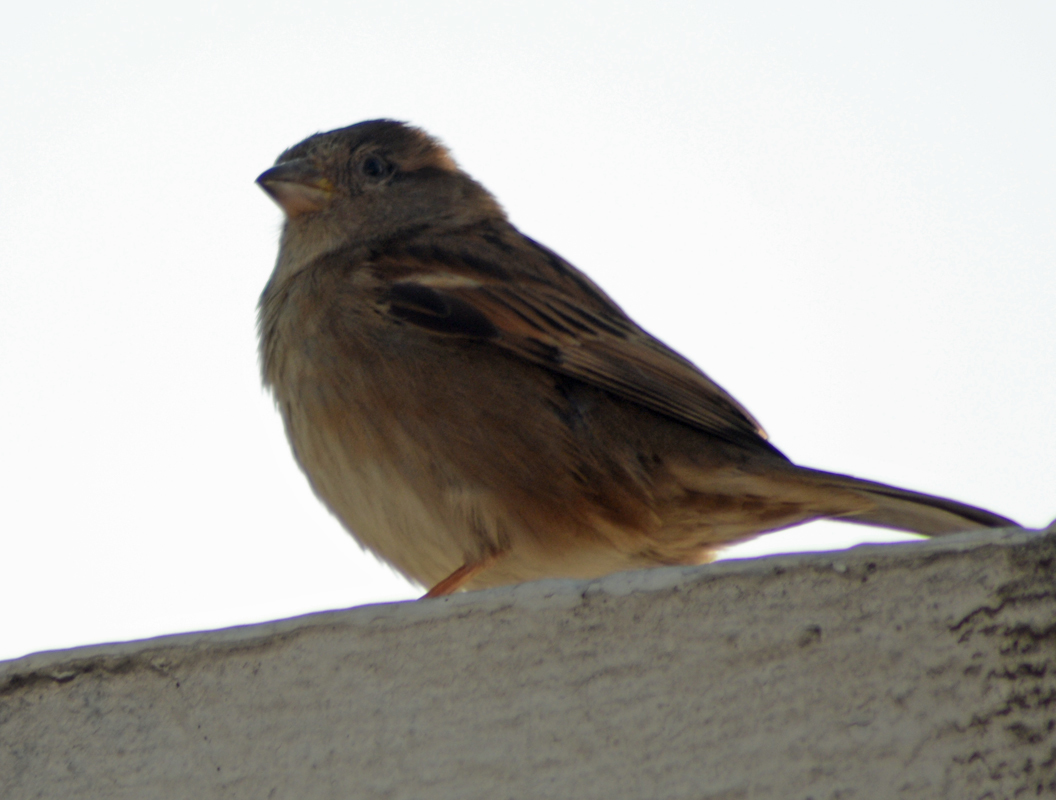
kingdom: Animalia
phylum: Chordata
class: Aves
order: Passeriformes
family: Passeridae
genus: Passer
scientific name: Passer domesticus
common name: House sparrow
